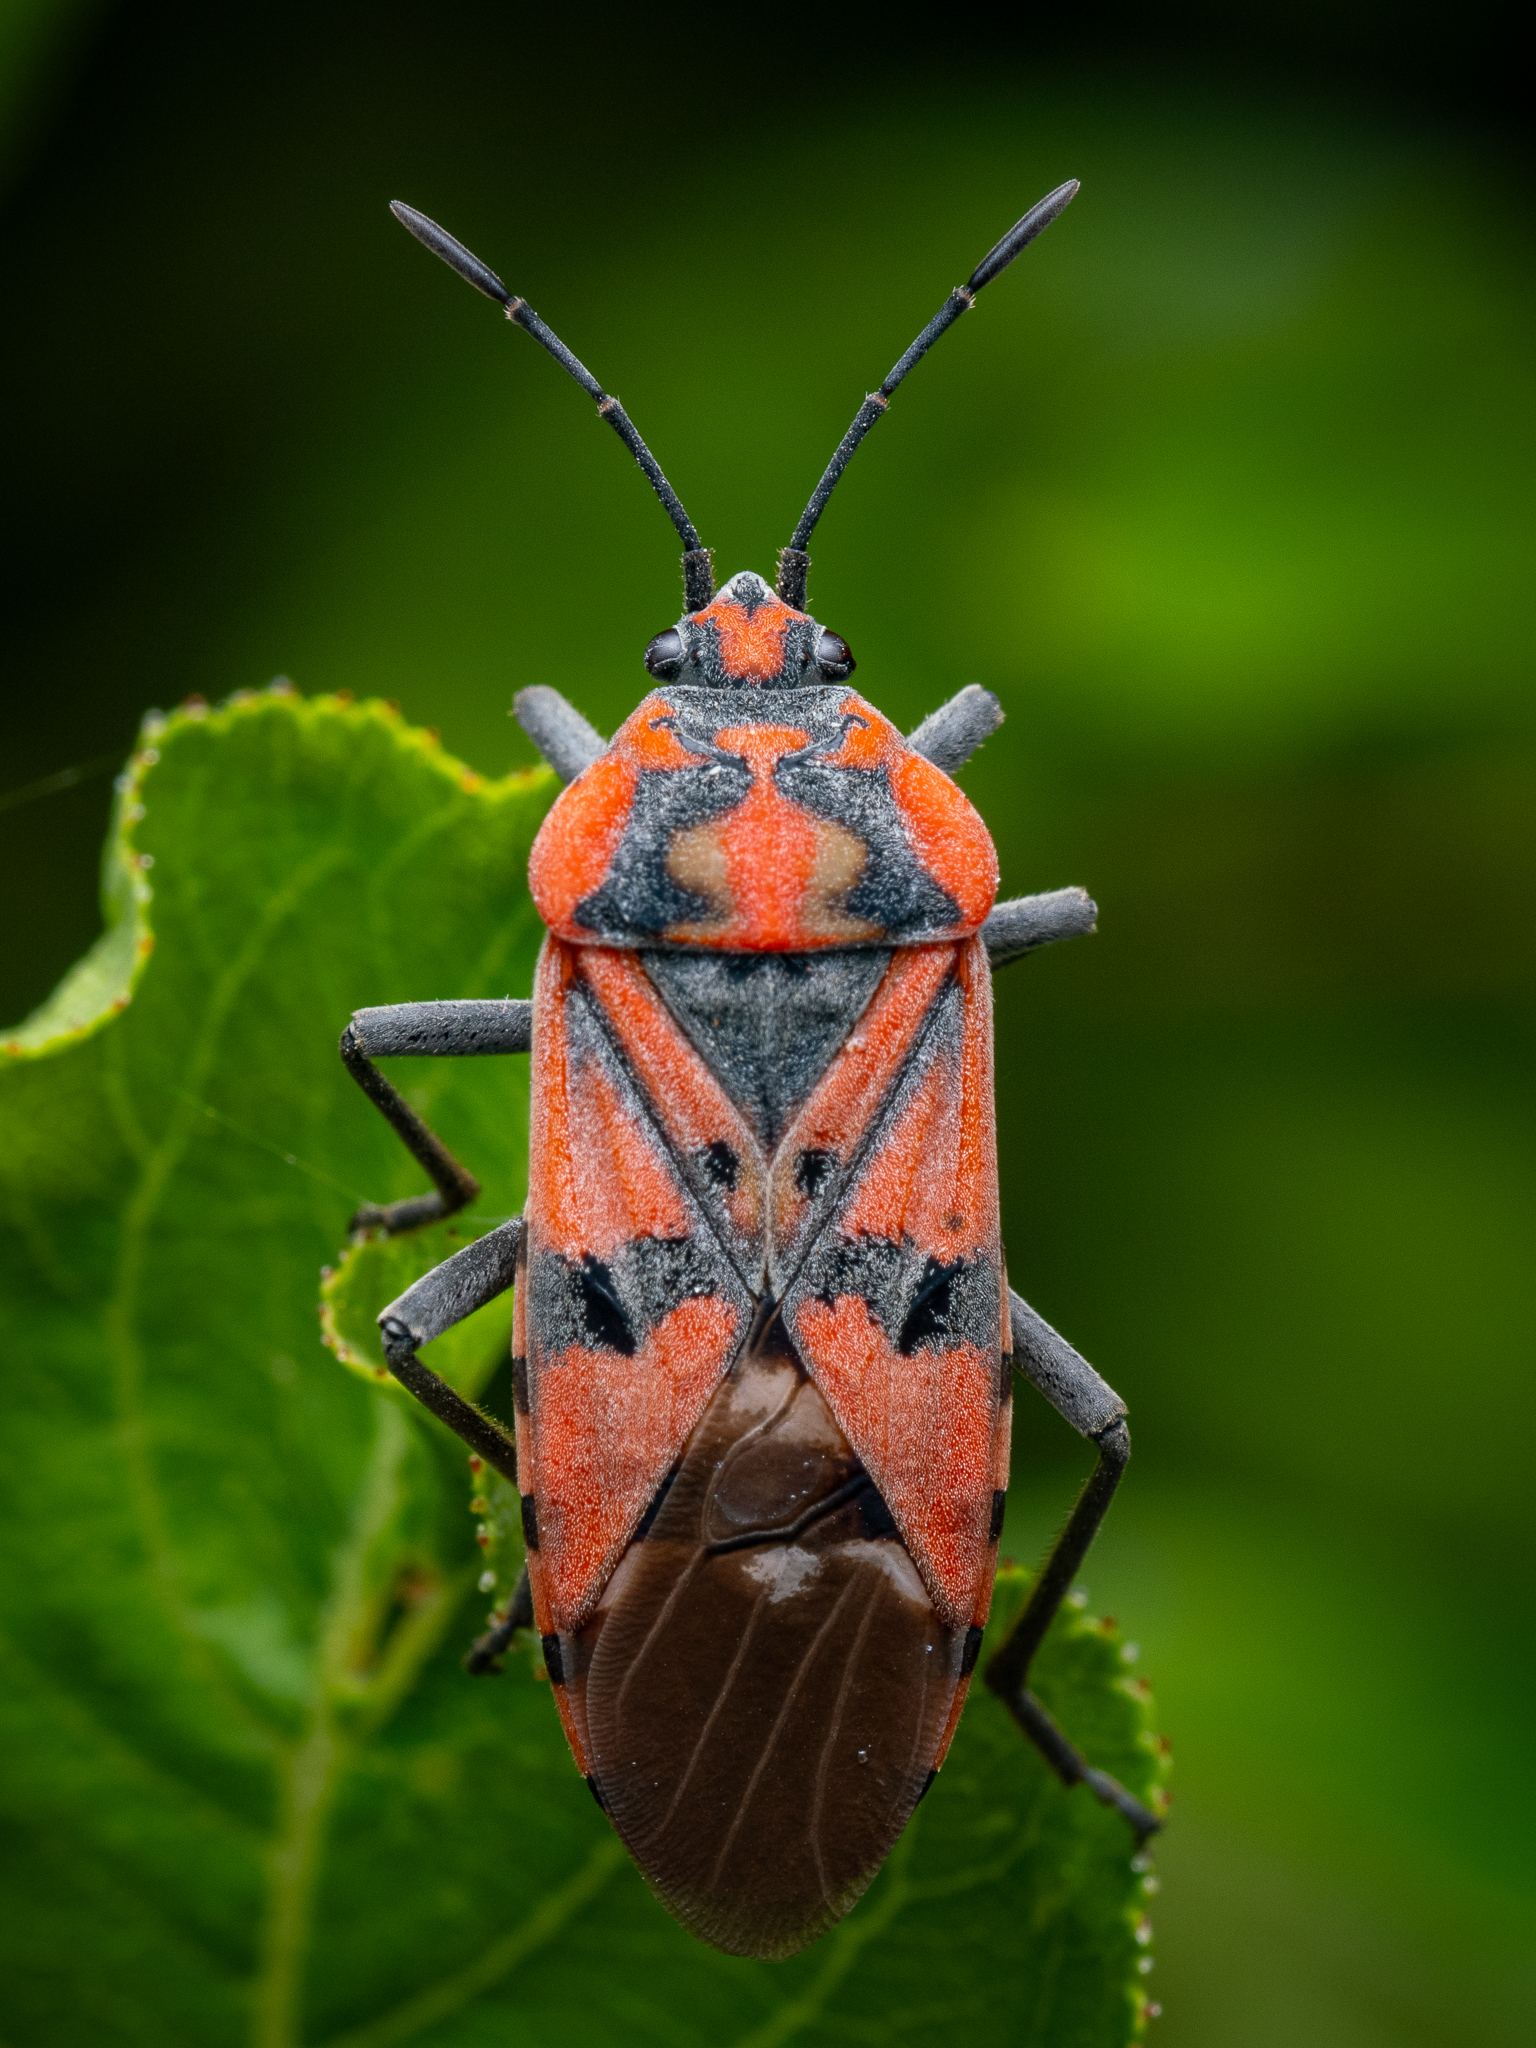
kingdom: Animalia
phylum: Arthropoda
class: Insecta
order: Hemiptera
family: Lygaeidae
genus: Spilostethus
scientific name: Spilostethus pandurus
